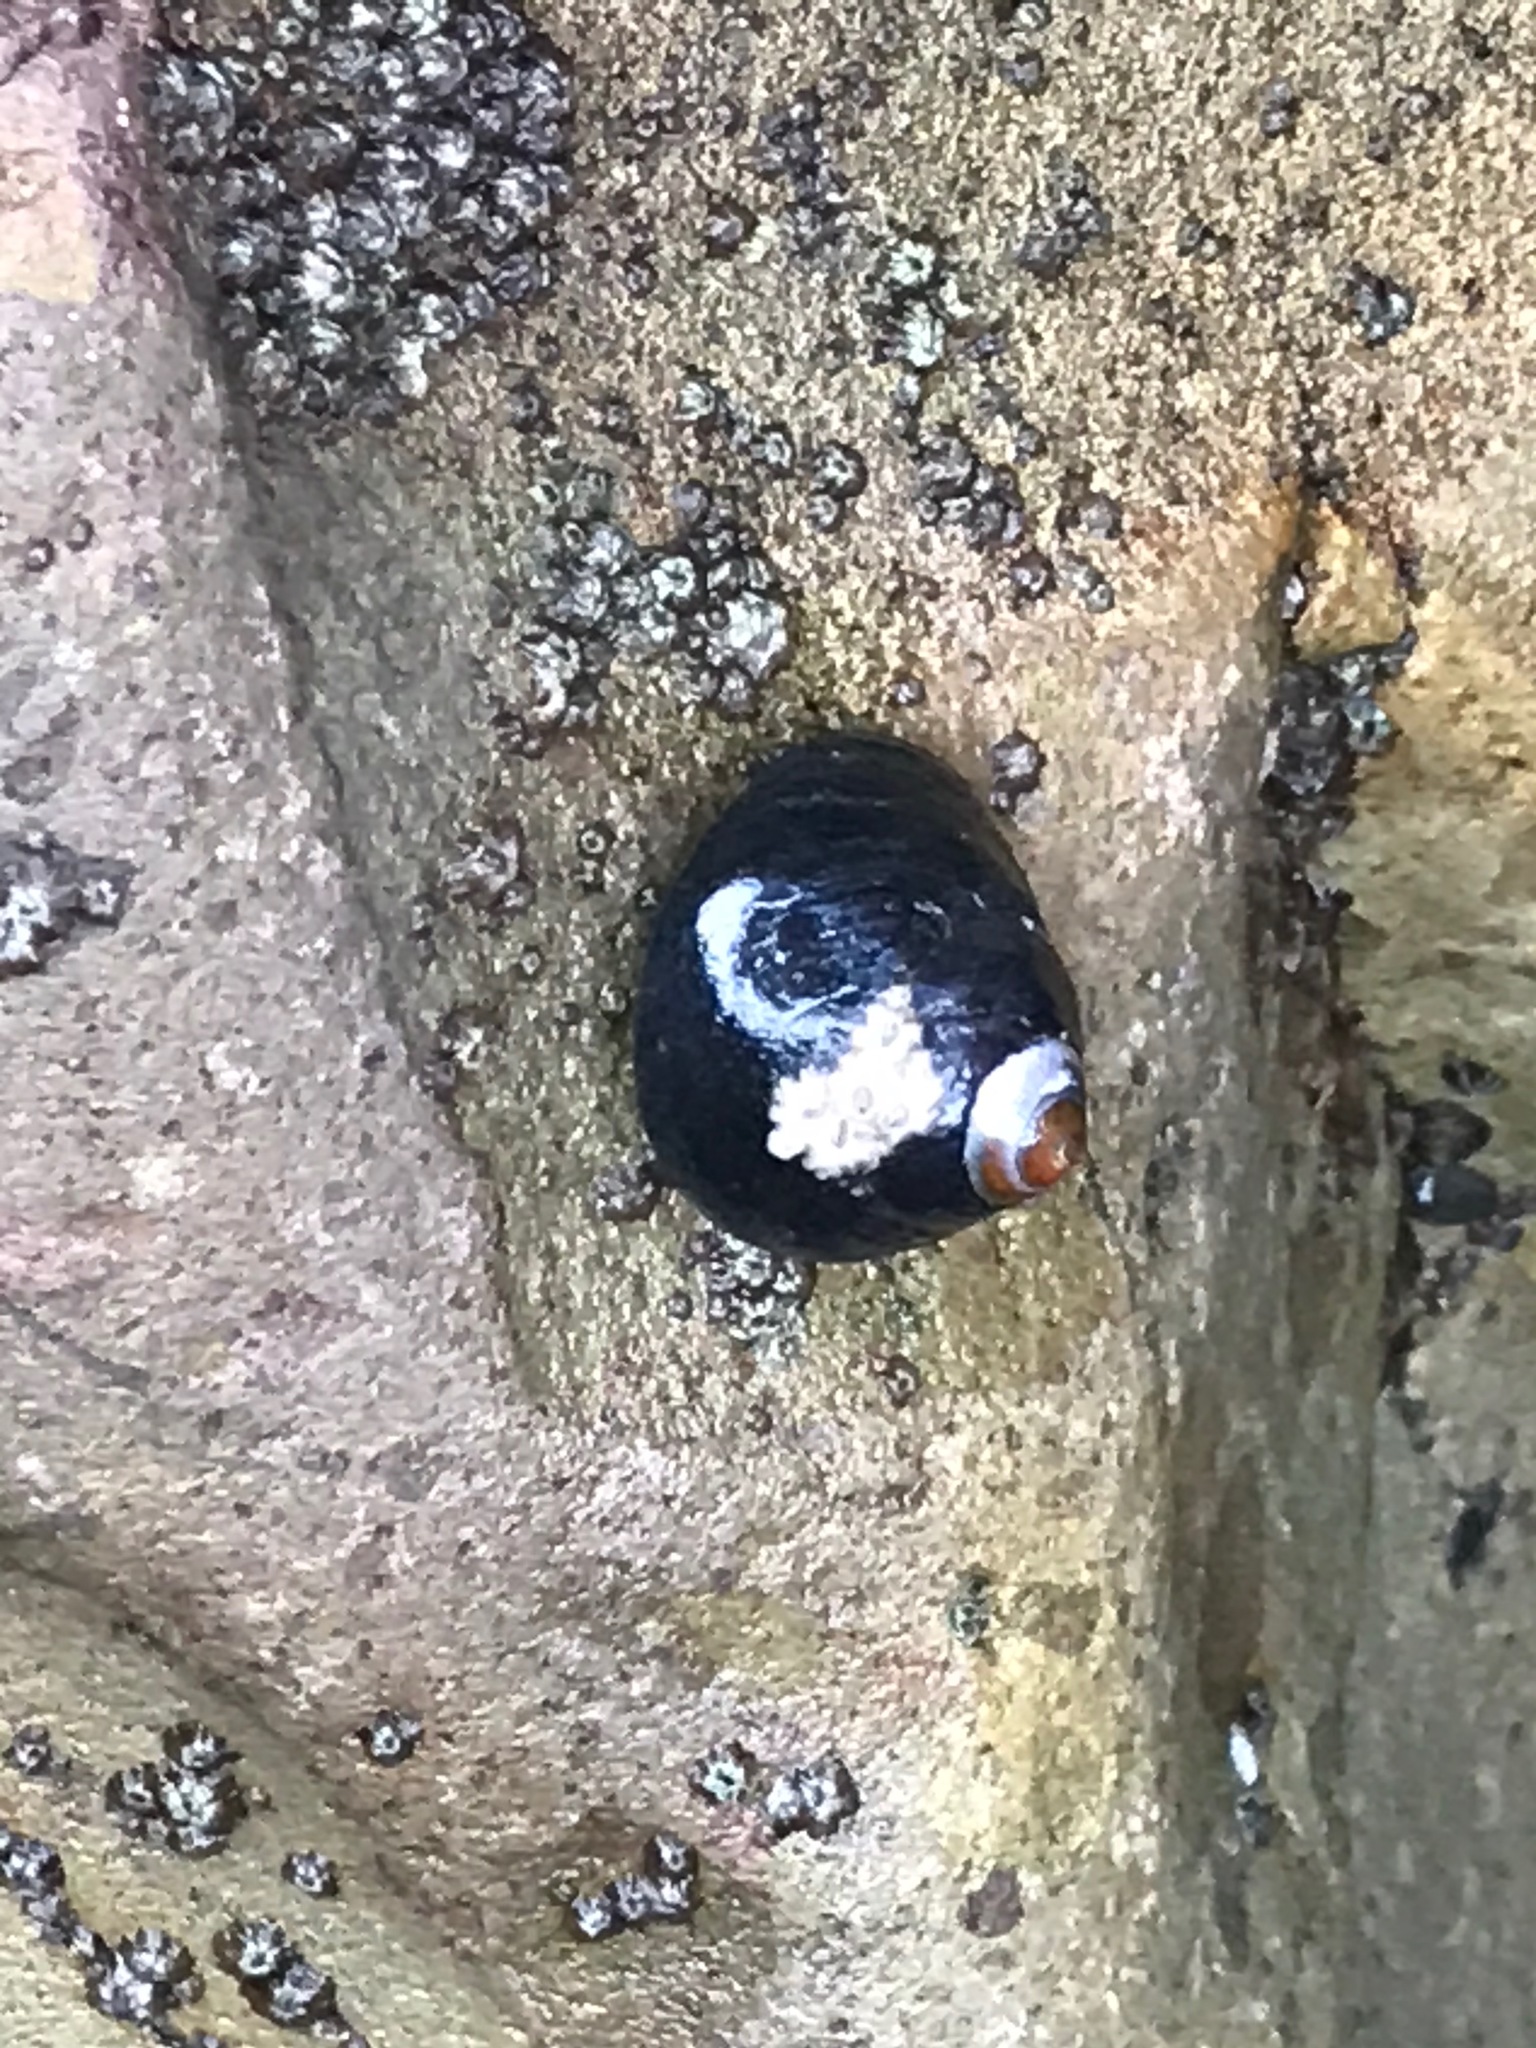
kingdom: Animalia
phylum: Mollusca
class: Gastropoda
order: Trochida
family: Tegulidae
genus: Tegula
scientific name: Tegula funebralis
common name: Black tegula
